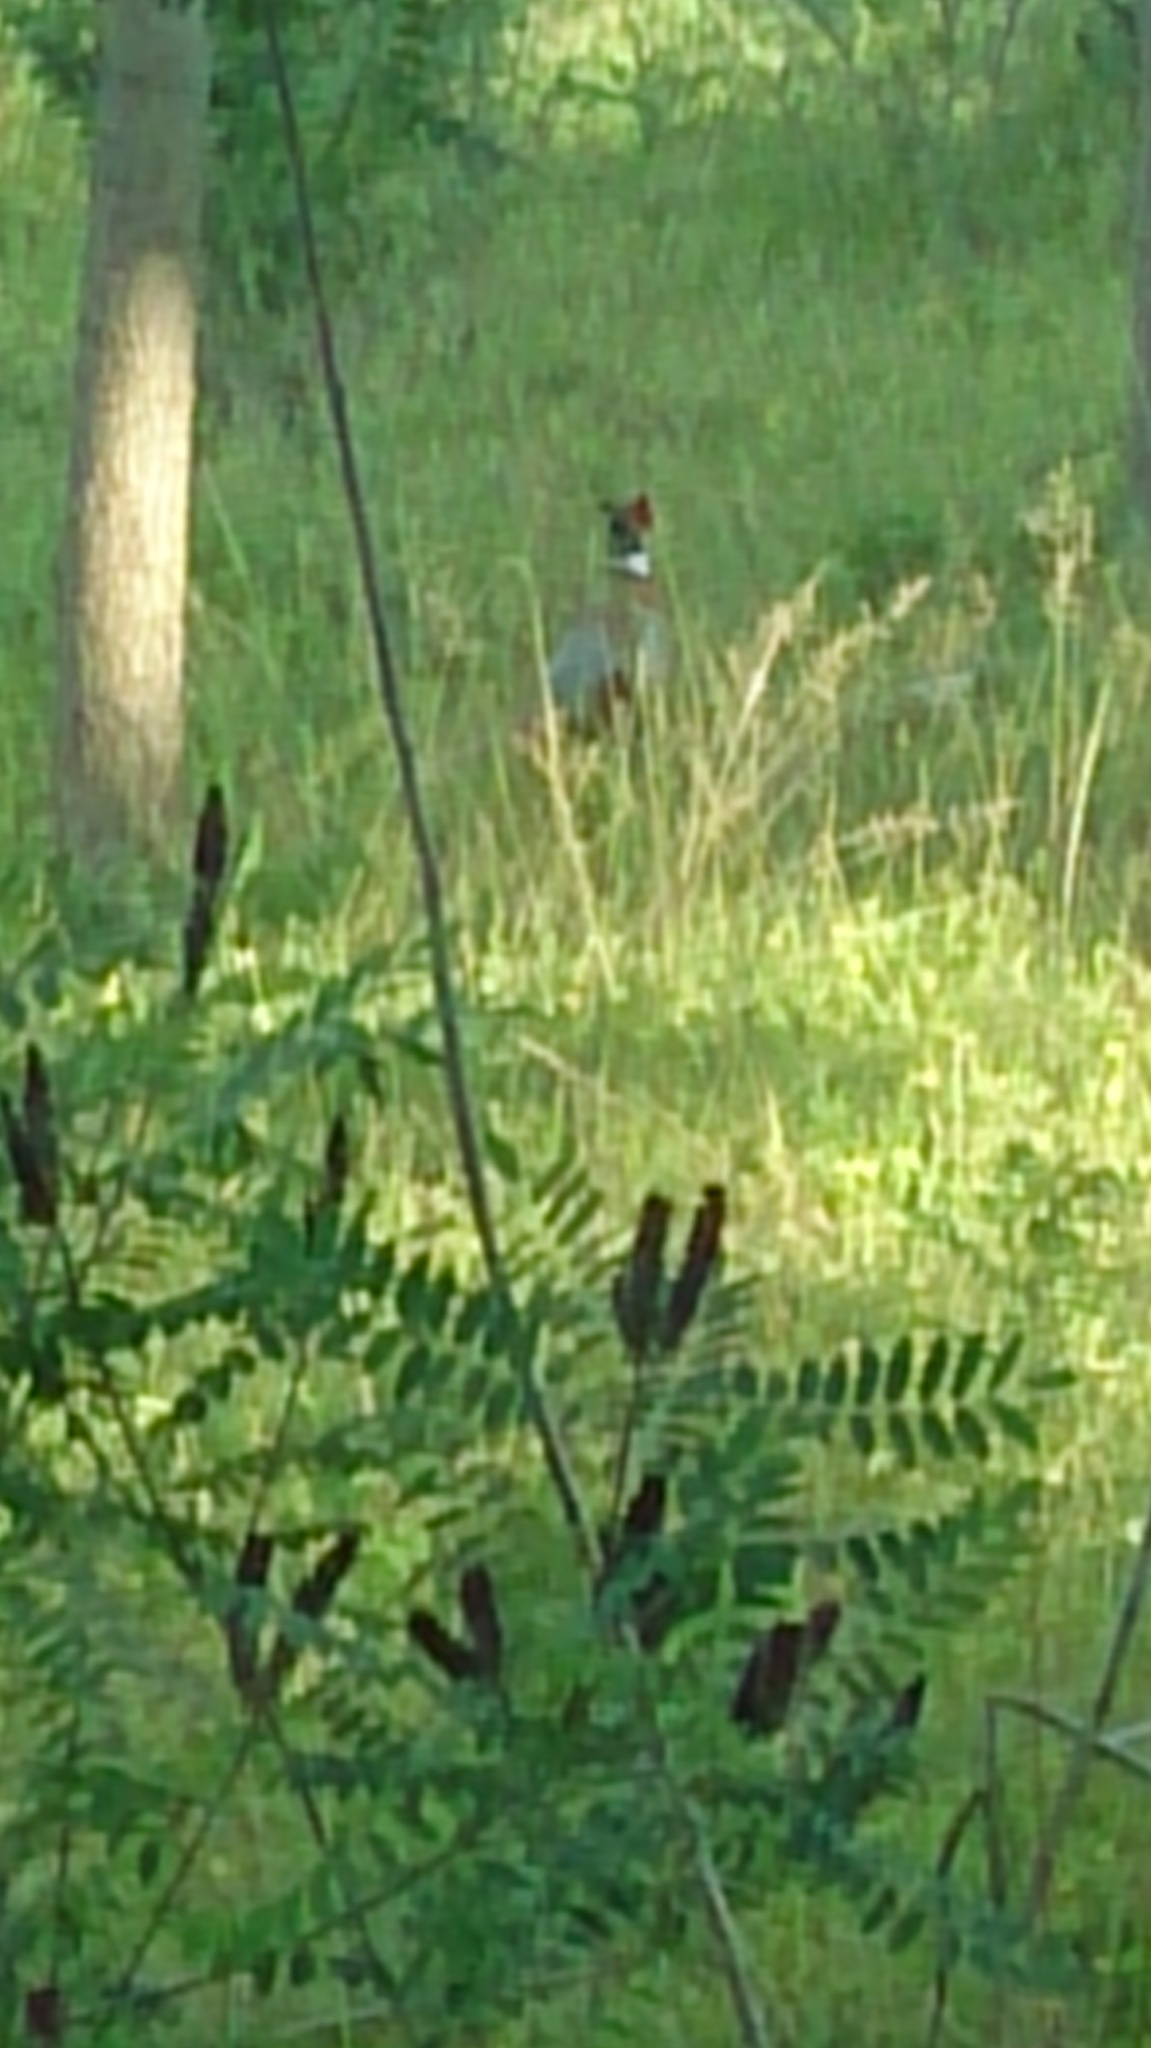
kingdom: Animalia
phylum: Chordata
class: Aves
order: Galliformes
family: Phasianidae
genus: Phasianus
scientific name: Phasianus colchicus
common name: Common pheasant
